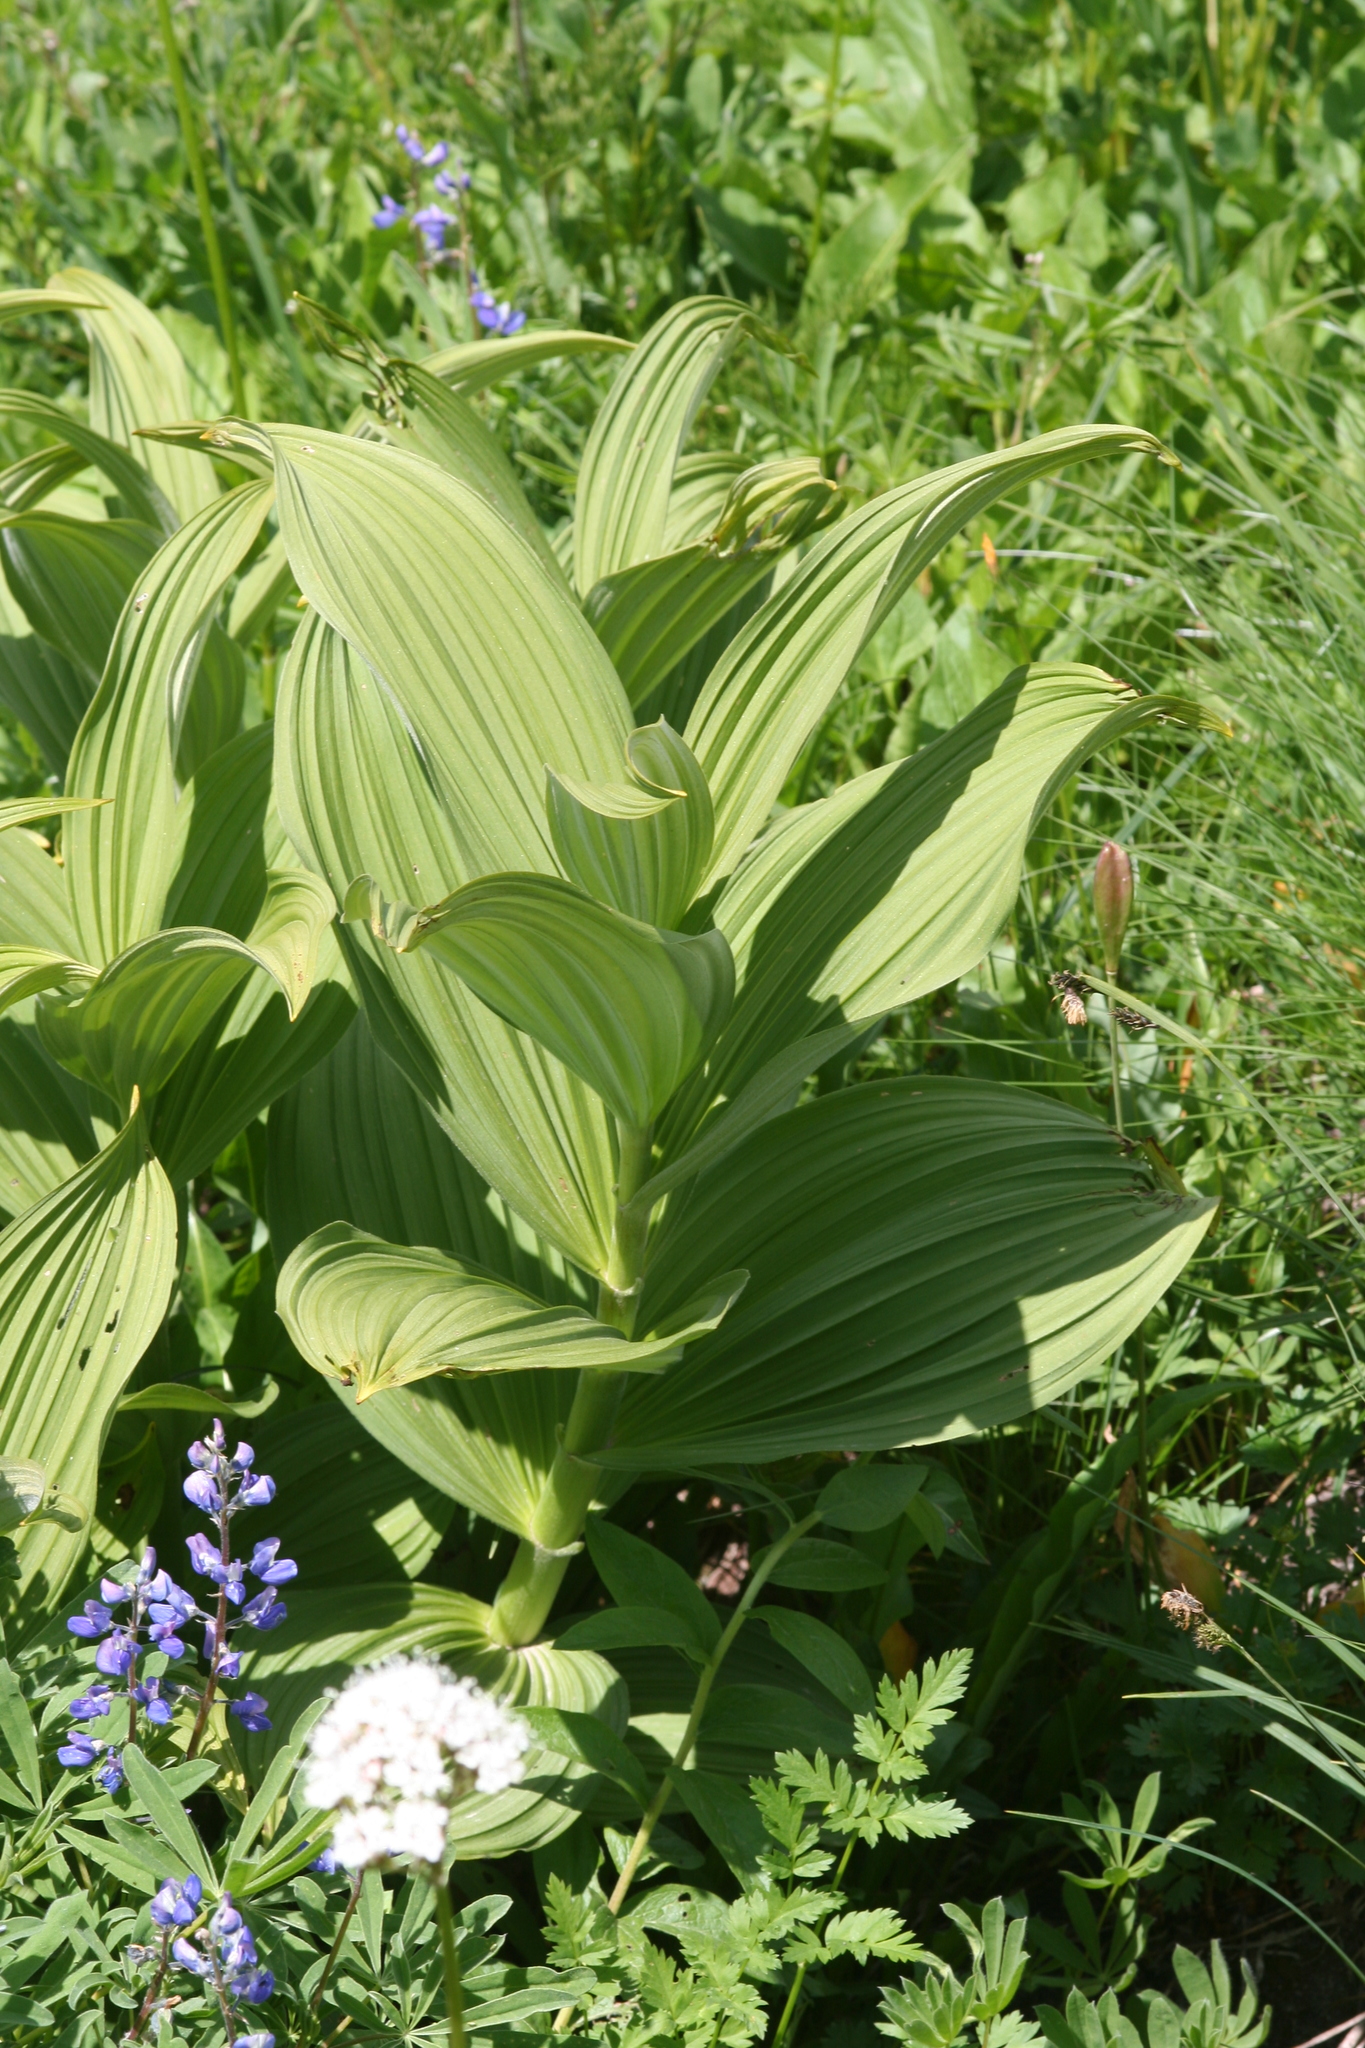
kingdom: Plantae
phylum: Tracheophyta
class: Liliopsida
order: Liliales
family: Melanthiaceae
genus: Veratrum
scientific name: Veratrum viride
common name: American false hellebore
